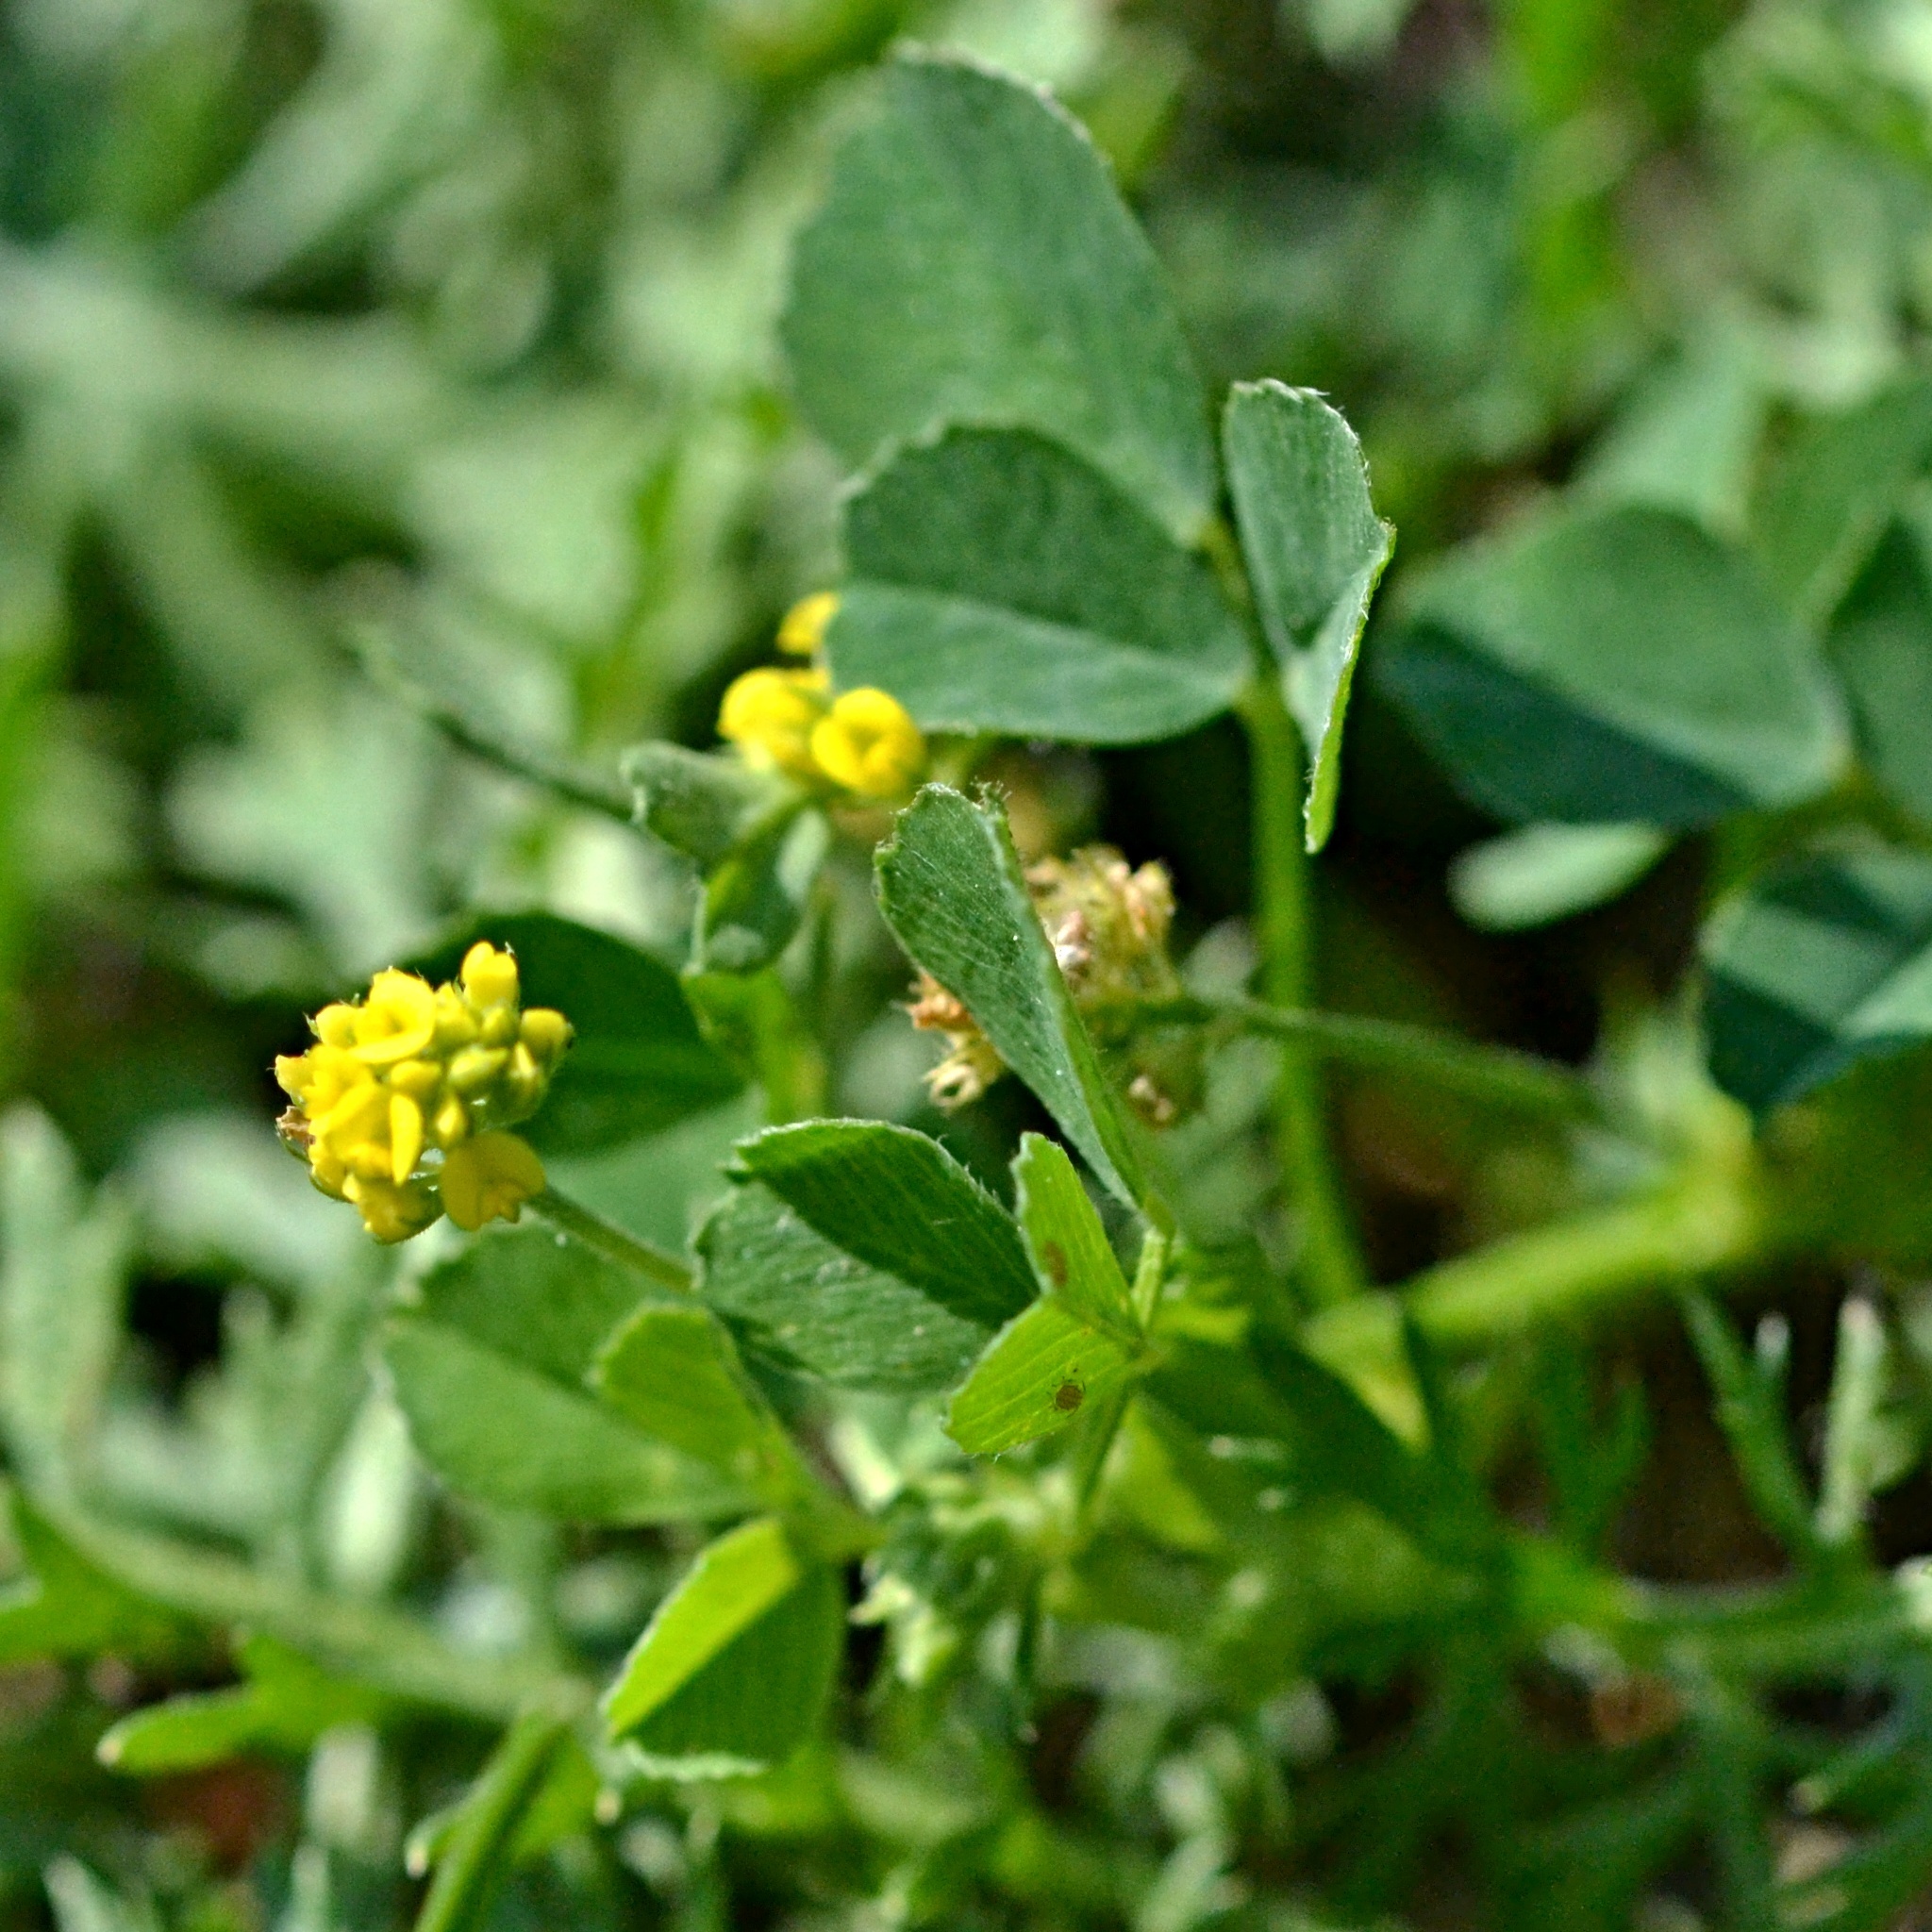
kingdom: Plantae
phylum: Tracheophyta
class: Magnoliopsida
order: Fabales
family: Fabaceae
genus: Medicago
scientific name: Medicago lupulina
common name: Black medick
